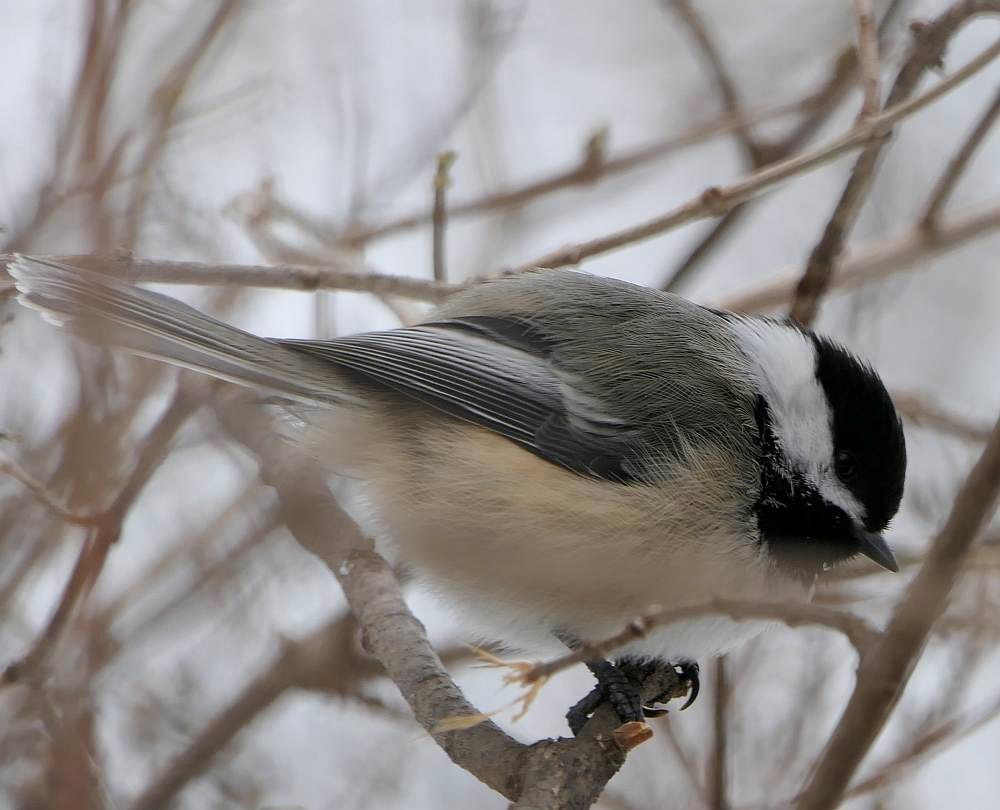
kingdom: Animalia
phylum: Chordata
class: Aves
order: Passeriformes
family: Paridae
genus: Poecile
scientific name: Poecile atricapillus
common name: Black-capped chickadee
